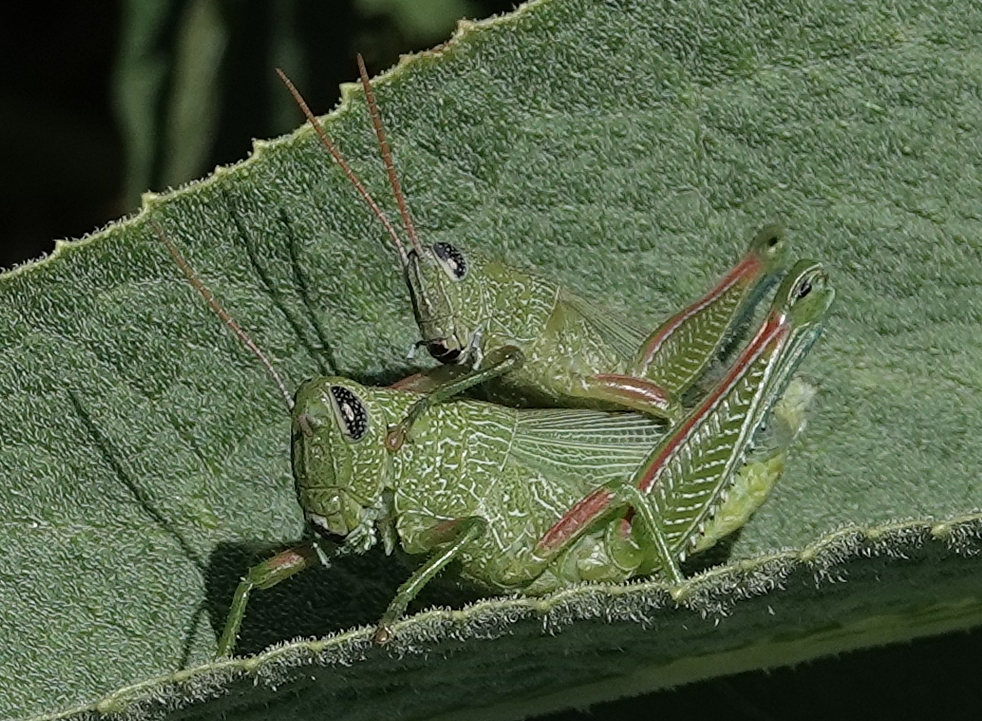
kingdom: Animalia
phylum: Arthropoda
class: Insecta
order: Orthoptera
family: Acrididae
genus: Hesperotettix
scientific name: Hesperotettix speciosus
